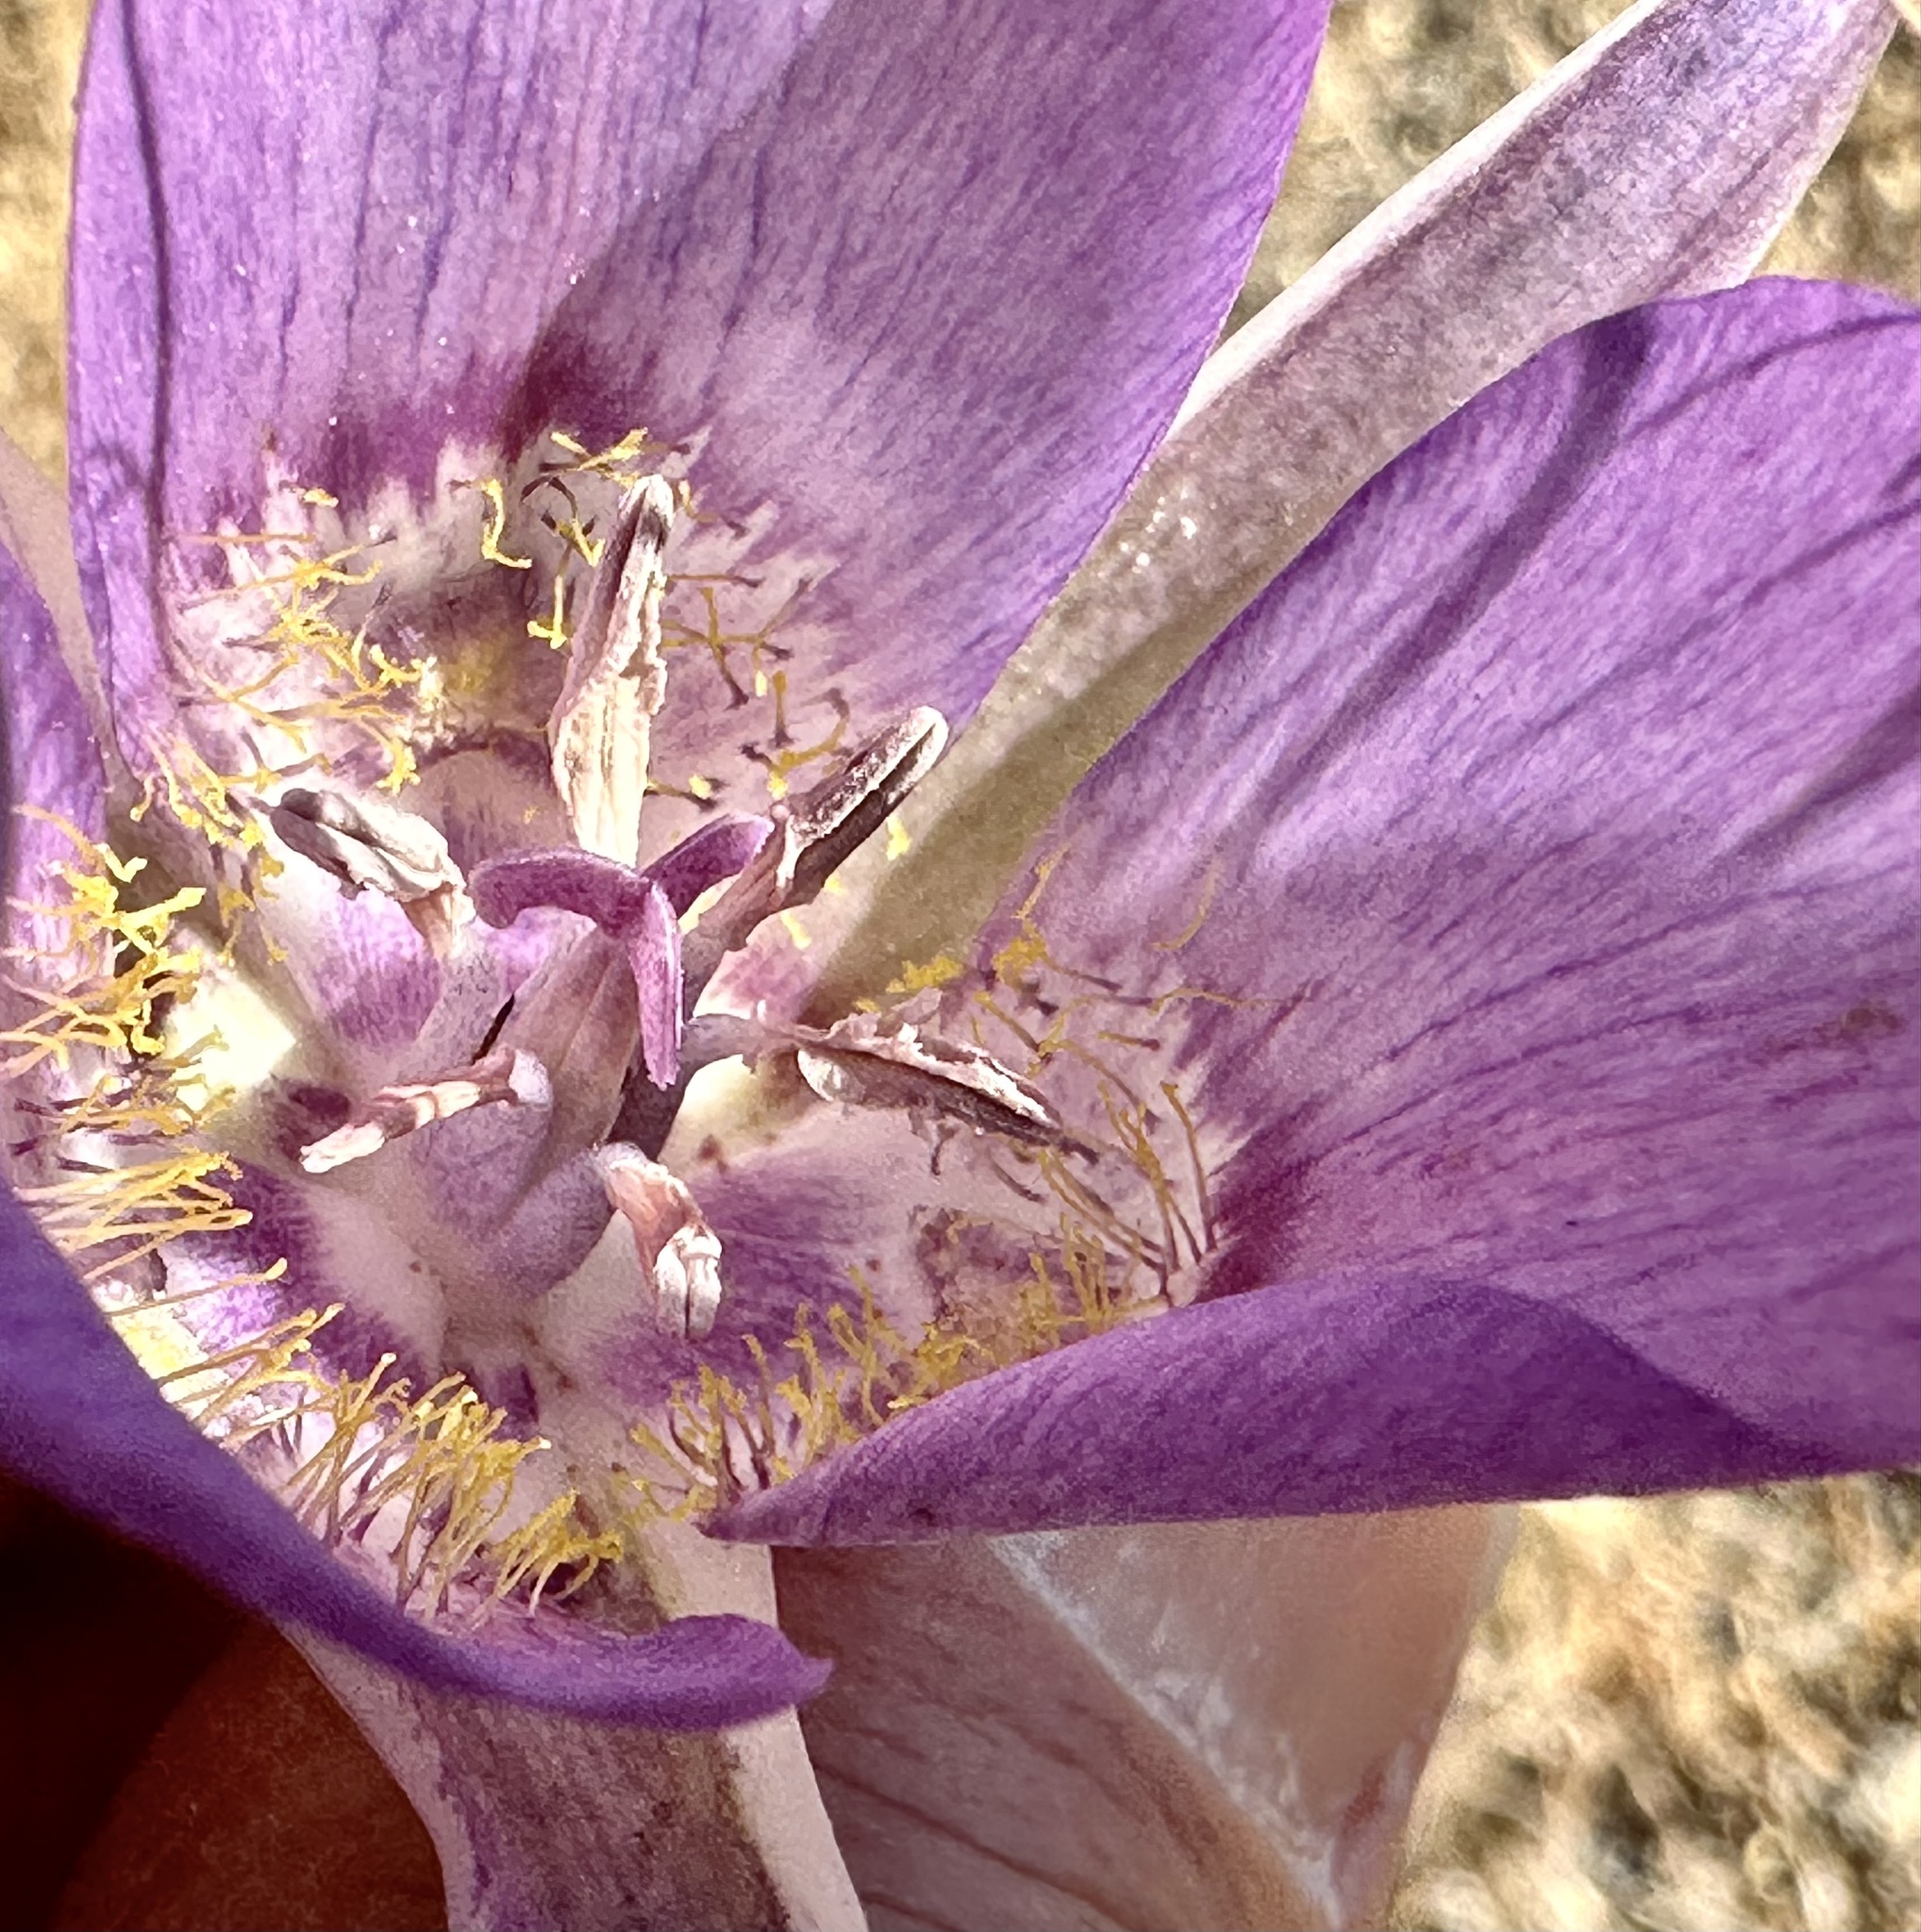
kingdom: Plantae
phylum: Tracheophyta
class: Liliopsida
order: Liliales
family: Liliaceae
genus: Calochortus
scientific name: Calochortus macrocarpus
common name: Green-band mariposa lily
